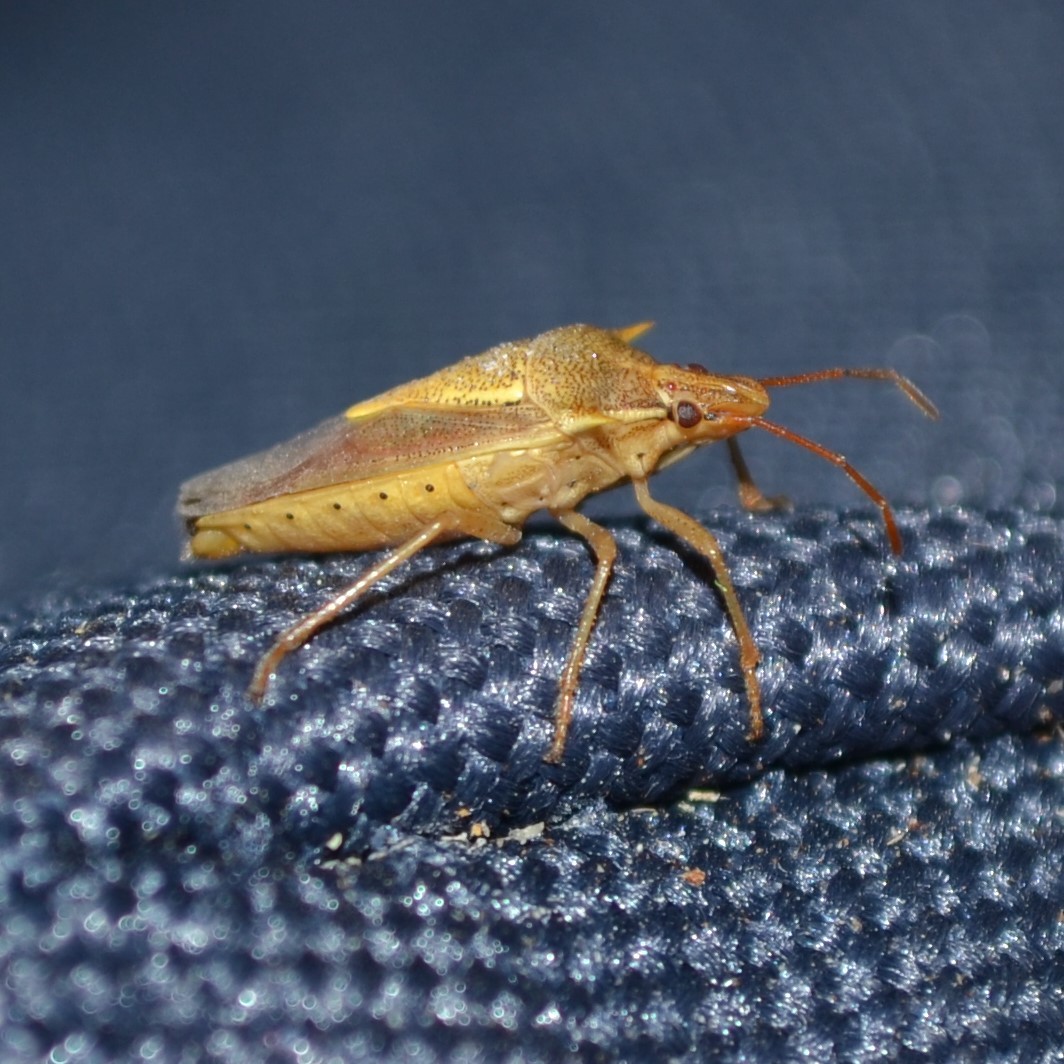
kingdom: Animalia
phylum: Arthropoda
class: Insecta
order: Hemiptera
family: Pentatomidae
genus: Oebalus
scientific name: Oebalus pugnax
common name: Rice stink bug
